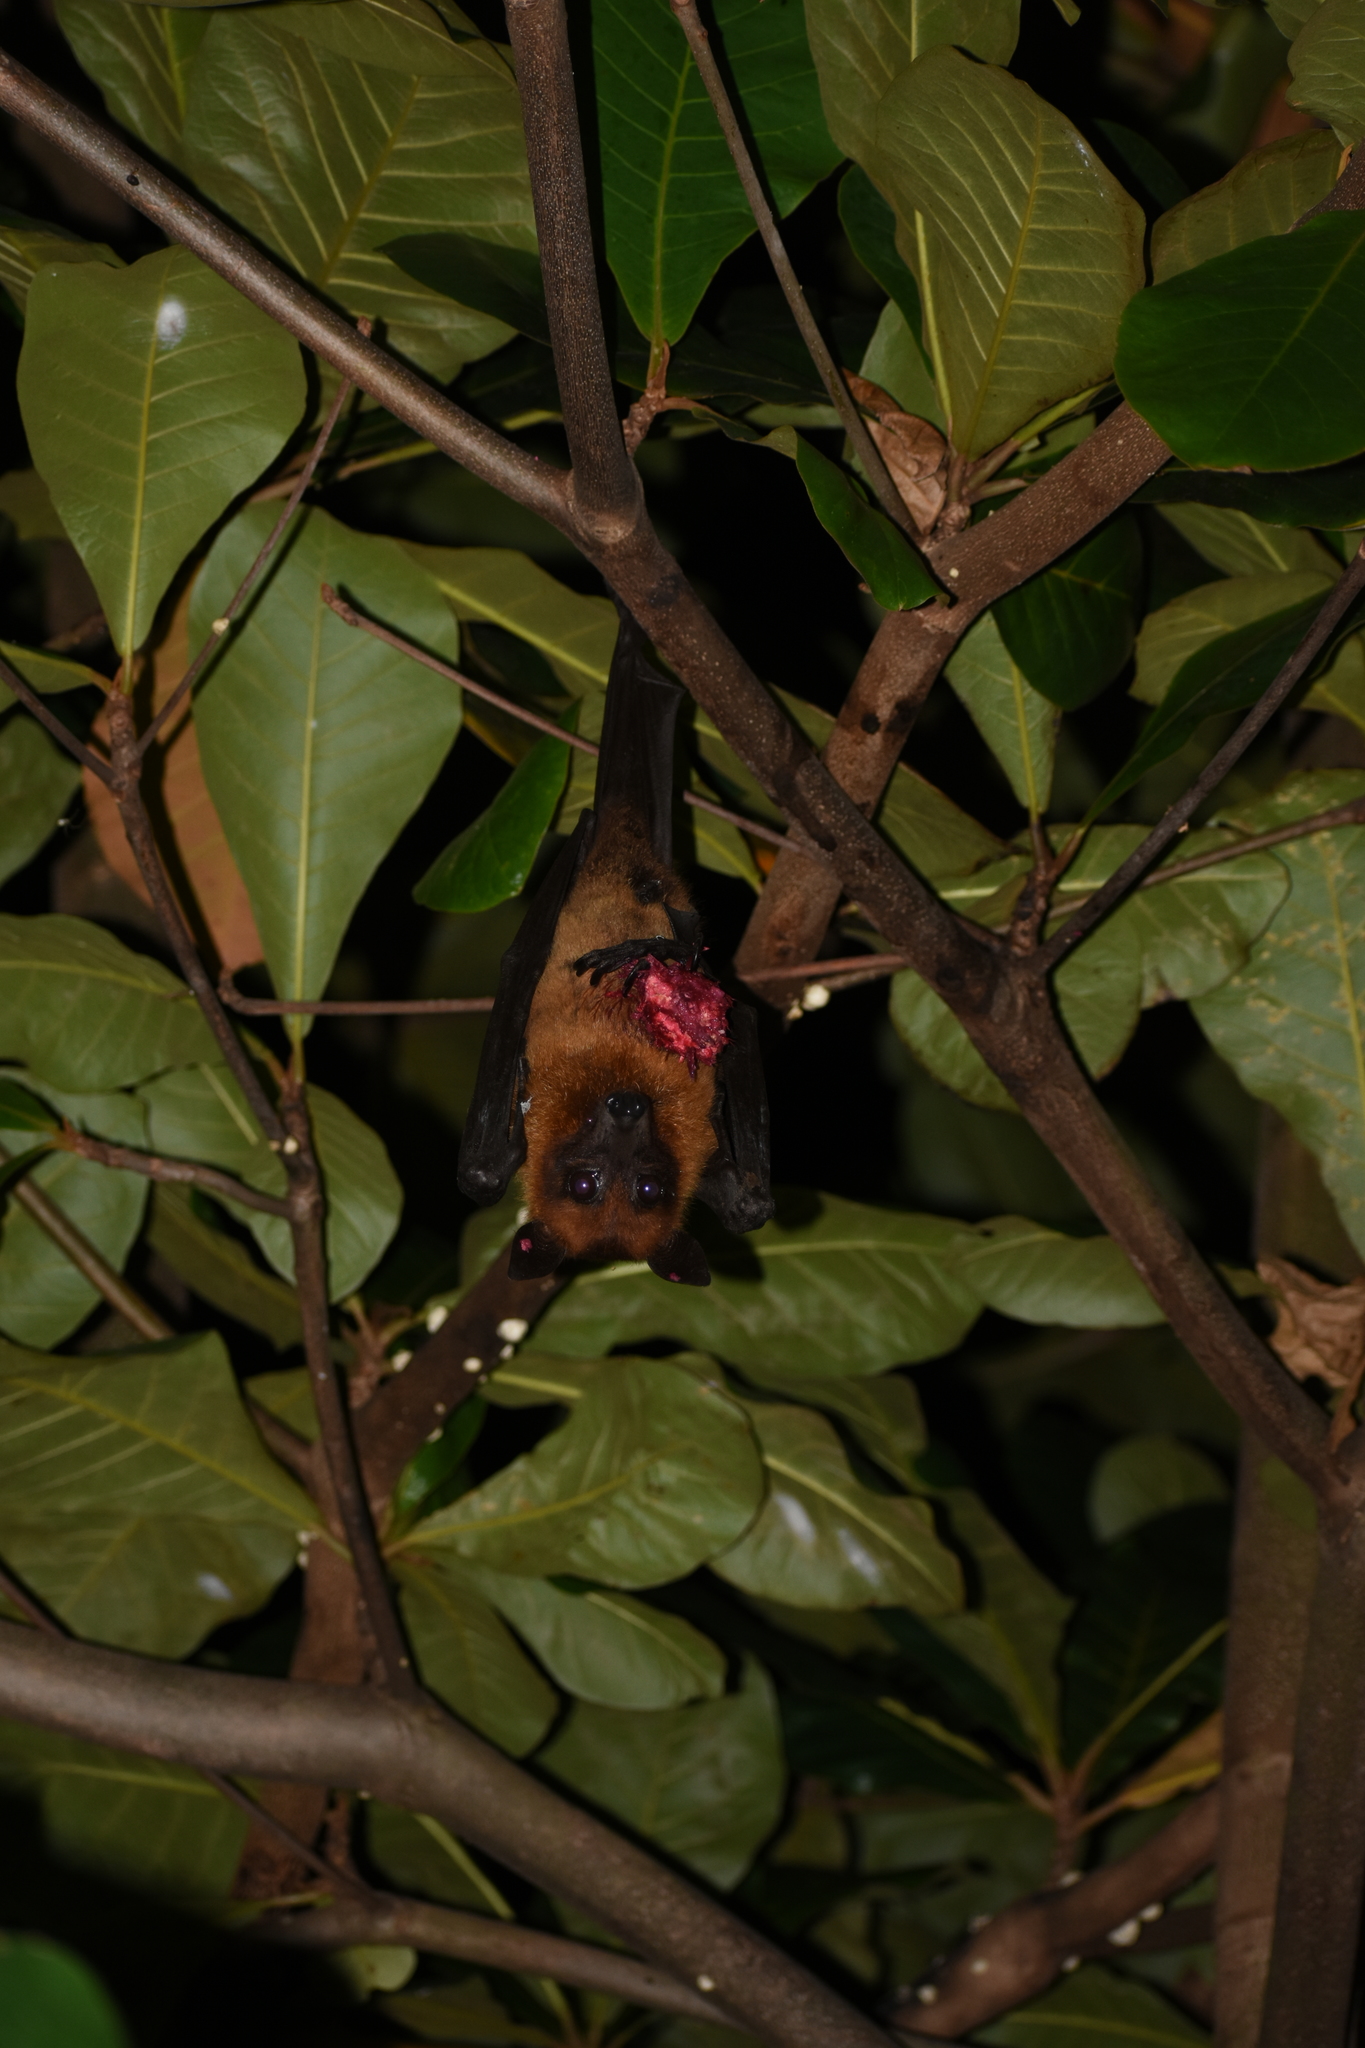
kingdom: Animalia
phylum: Chordata
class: Mammalia
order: Chiroptera
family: Pteropodidae
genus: Pteropus
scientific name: Pteropus vampyrus
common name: Large flying fox
